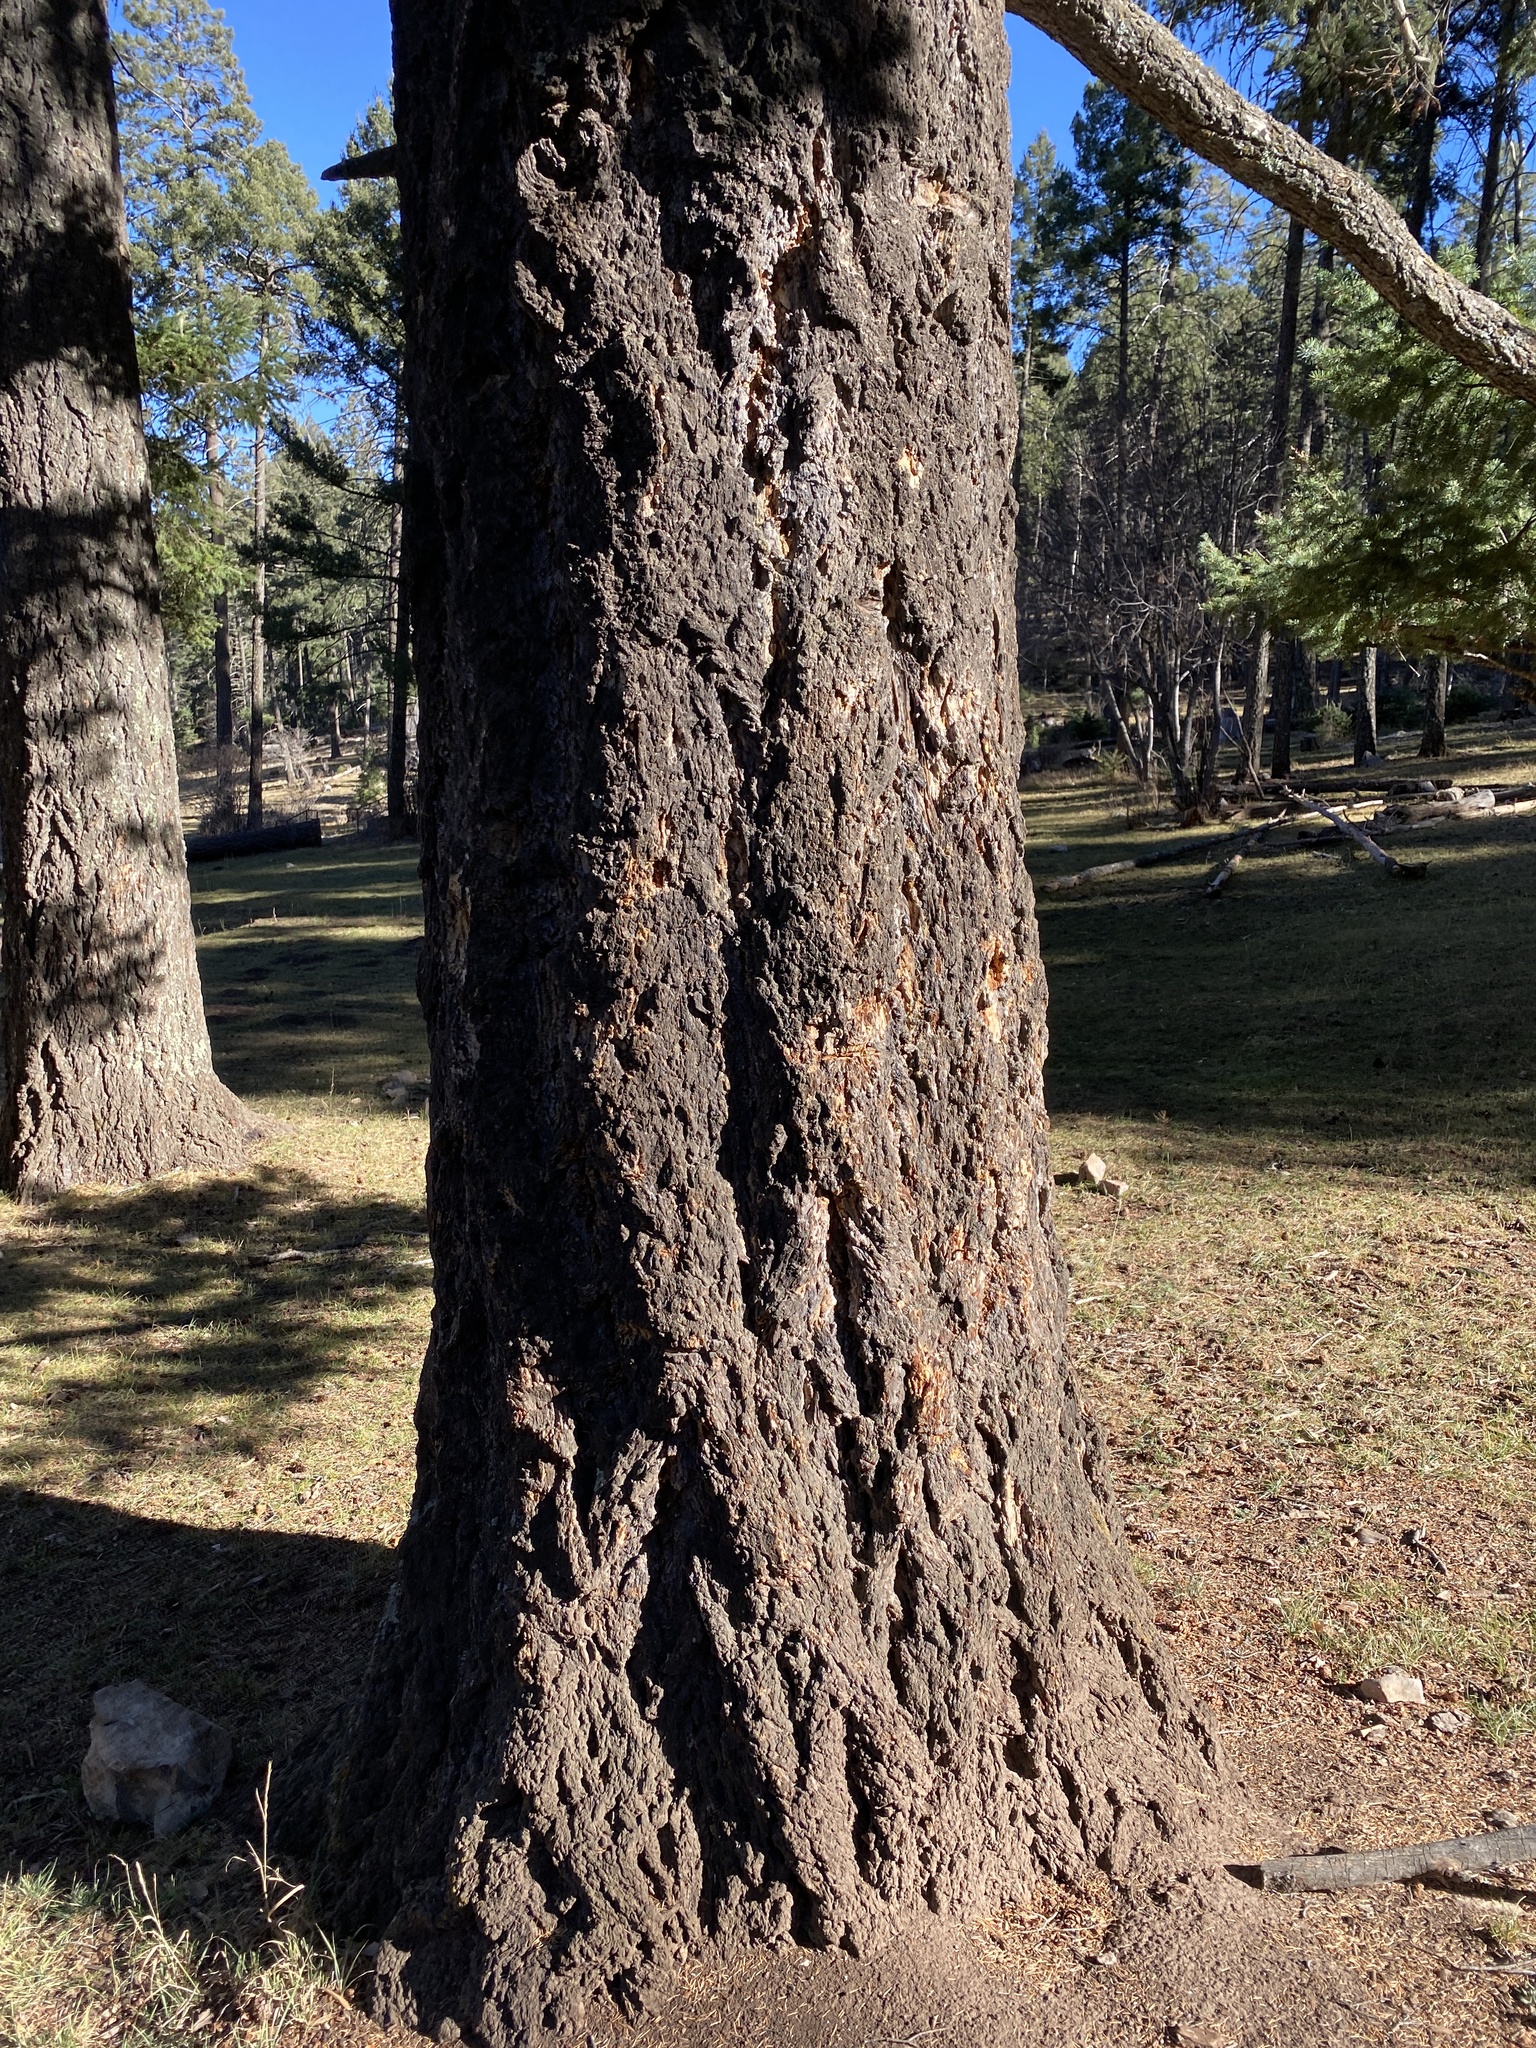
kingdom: Plantae
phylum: Tracheophyta
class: Pinopsida
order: Pinales
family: Pinaceae
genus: Pseudotsuga
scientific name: Pseudotsuga menziesii
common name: Douglas fir
